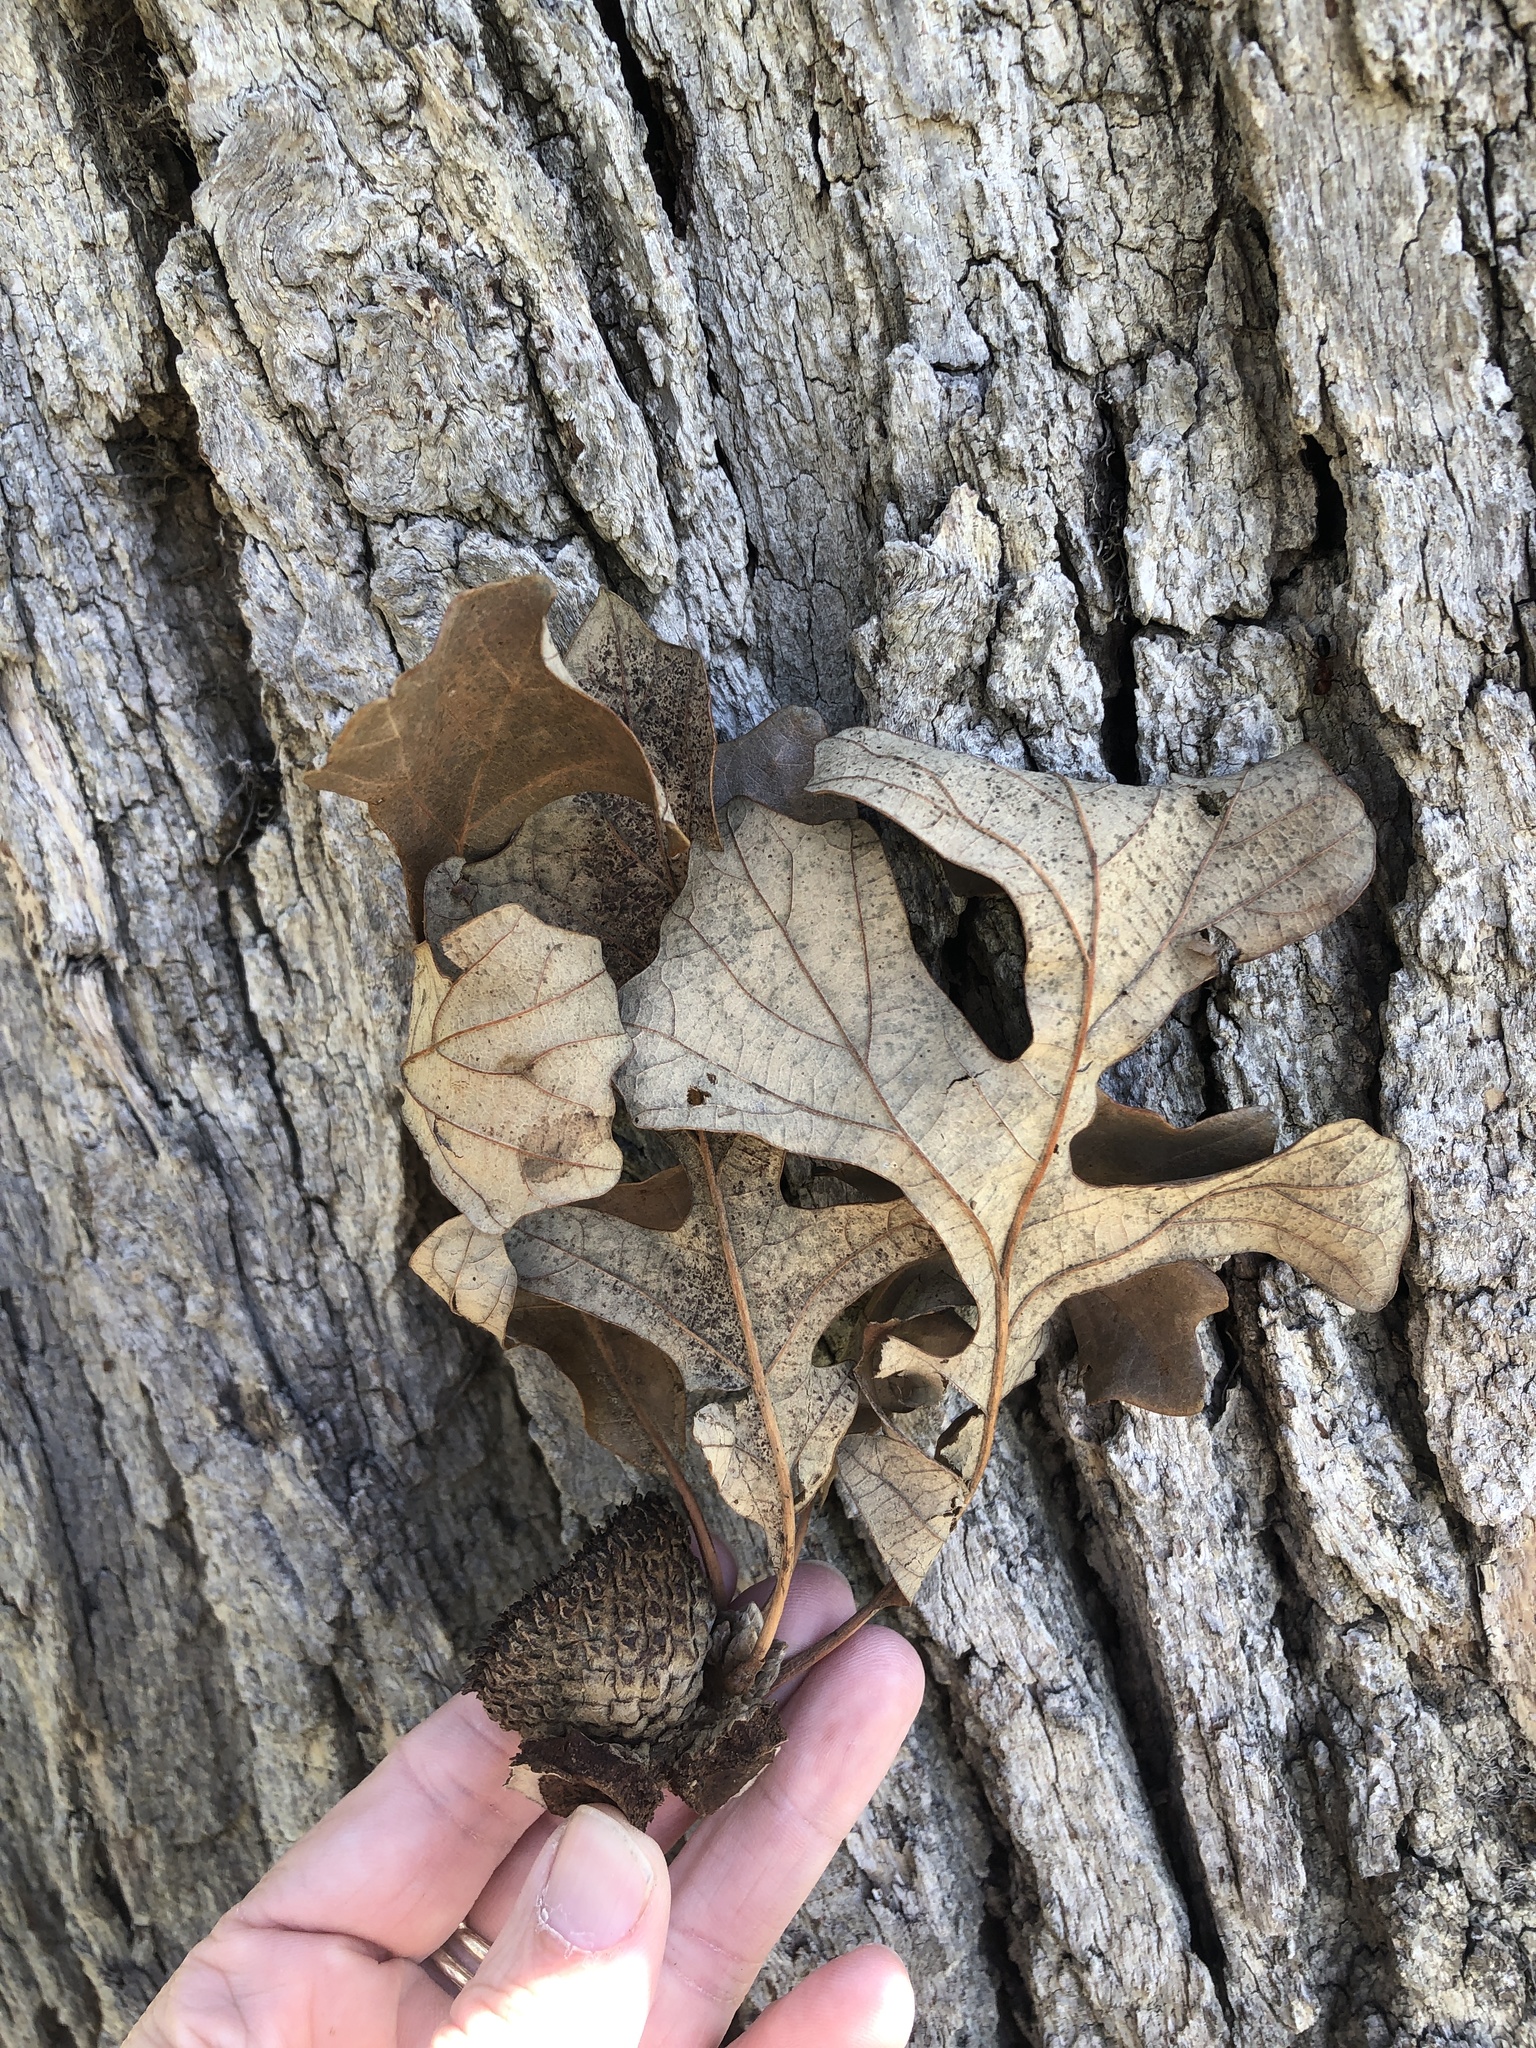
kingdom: Plantae
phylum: Tracheophyta
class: Magnoliopsida
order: Fagales
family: Fagaceae
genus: Quercus
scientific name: Quercus macrocarpa
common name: Bur oak
